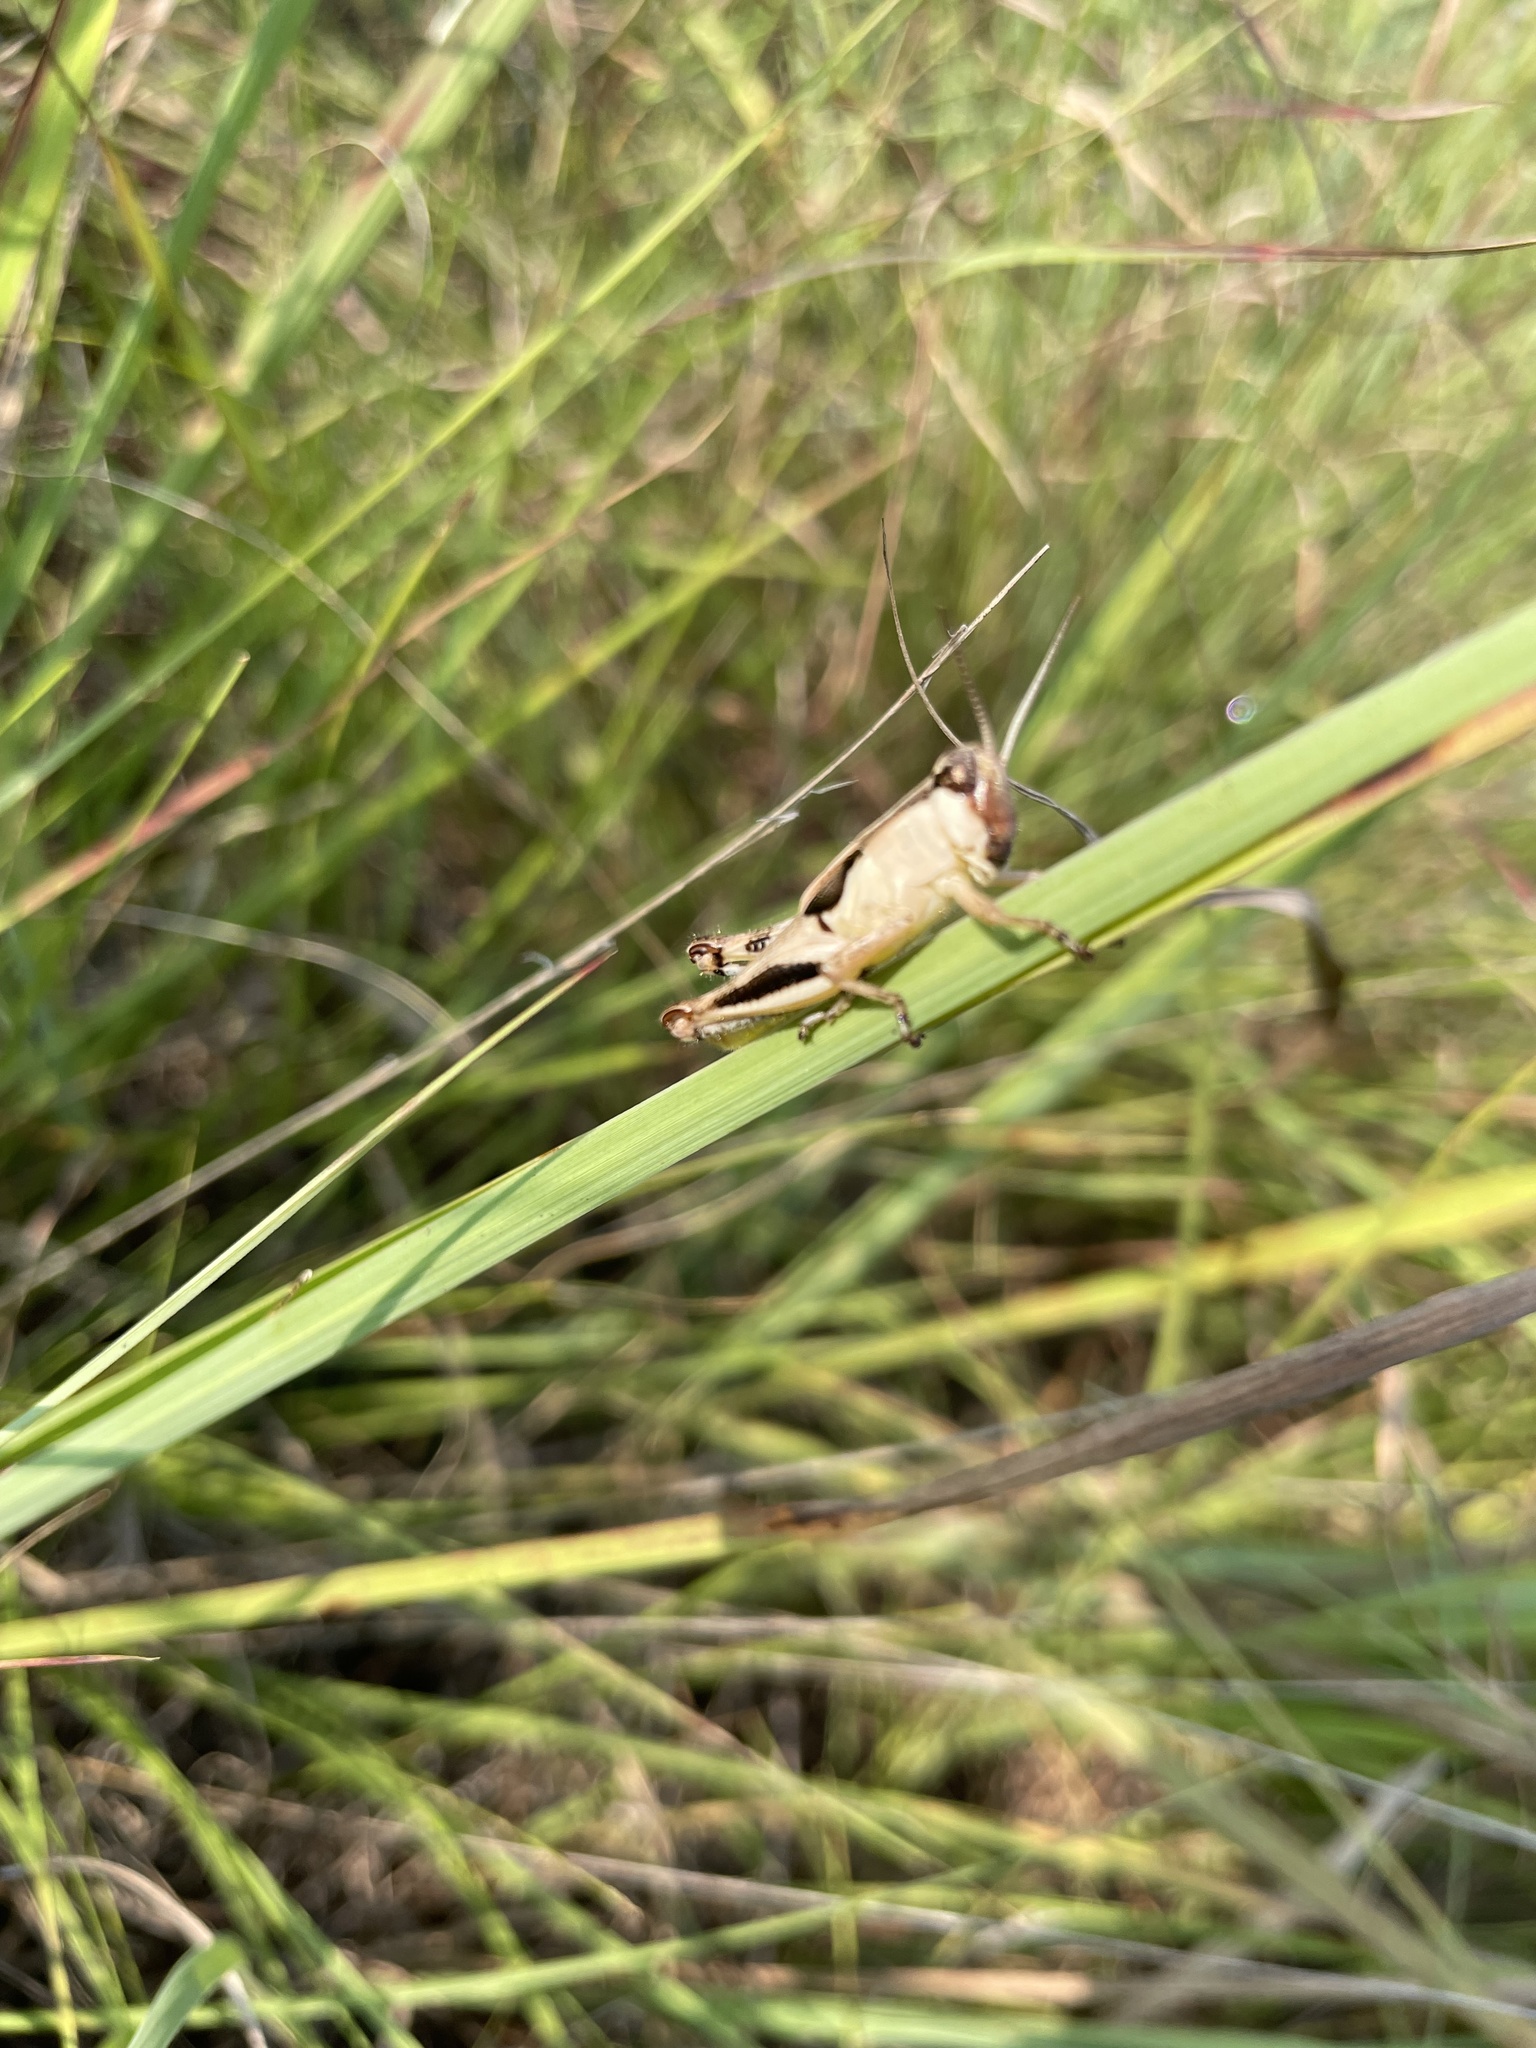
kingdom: Animalia
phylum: Arthropoda
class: Insecta
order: Orthoptera
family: Acrididae
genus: Melanoplus
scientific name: Melanoplus keeleri
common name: Keeler grasshopper
